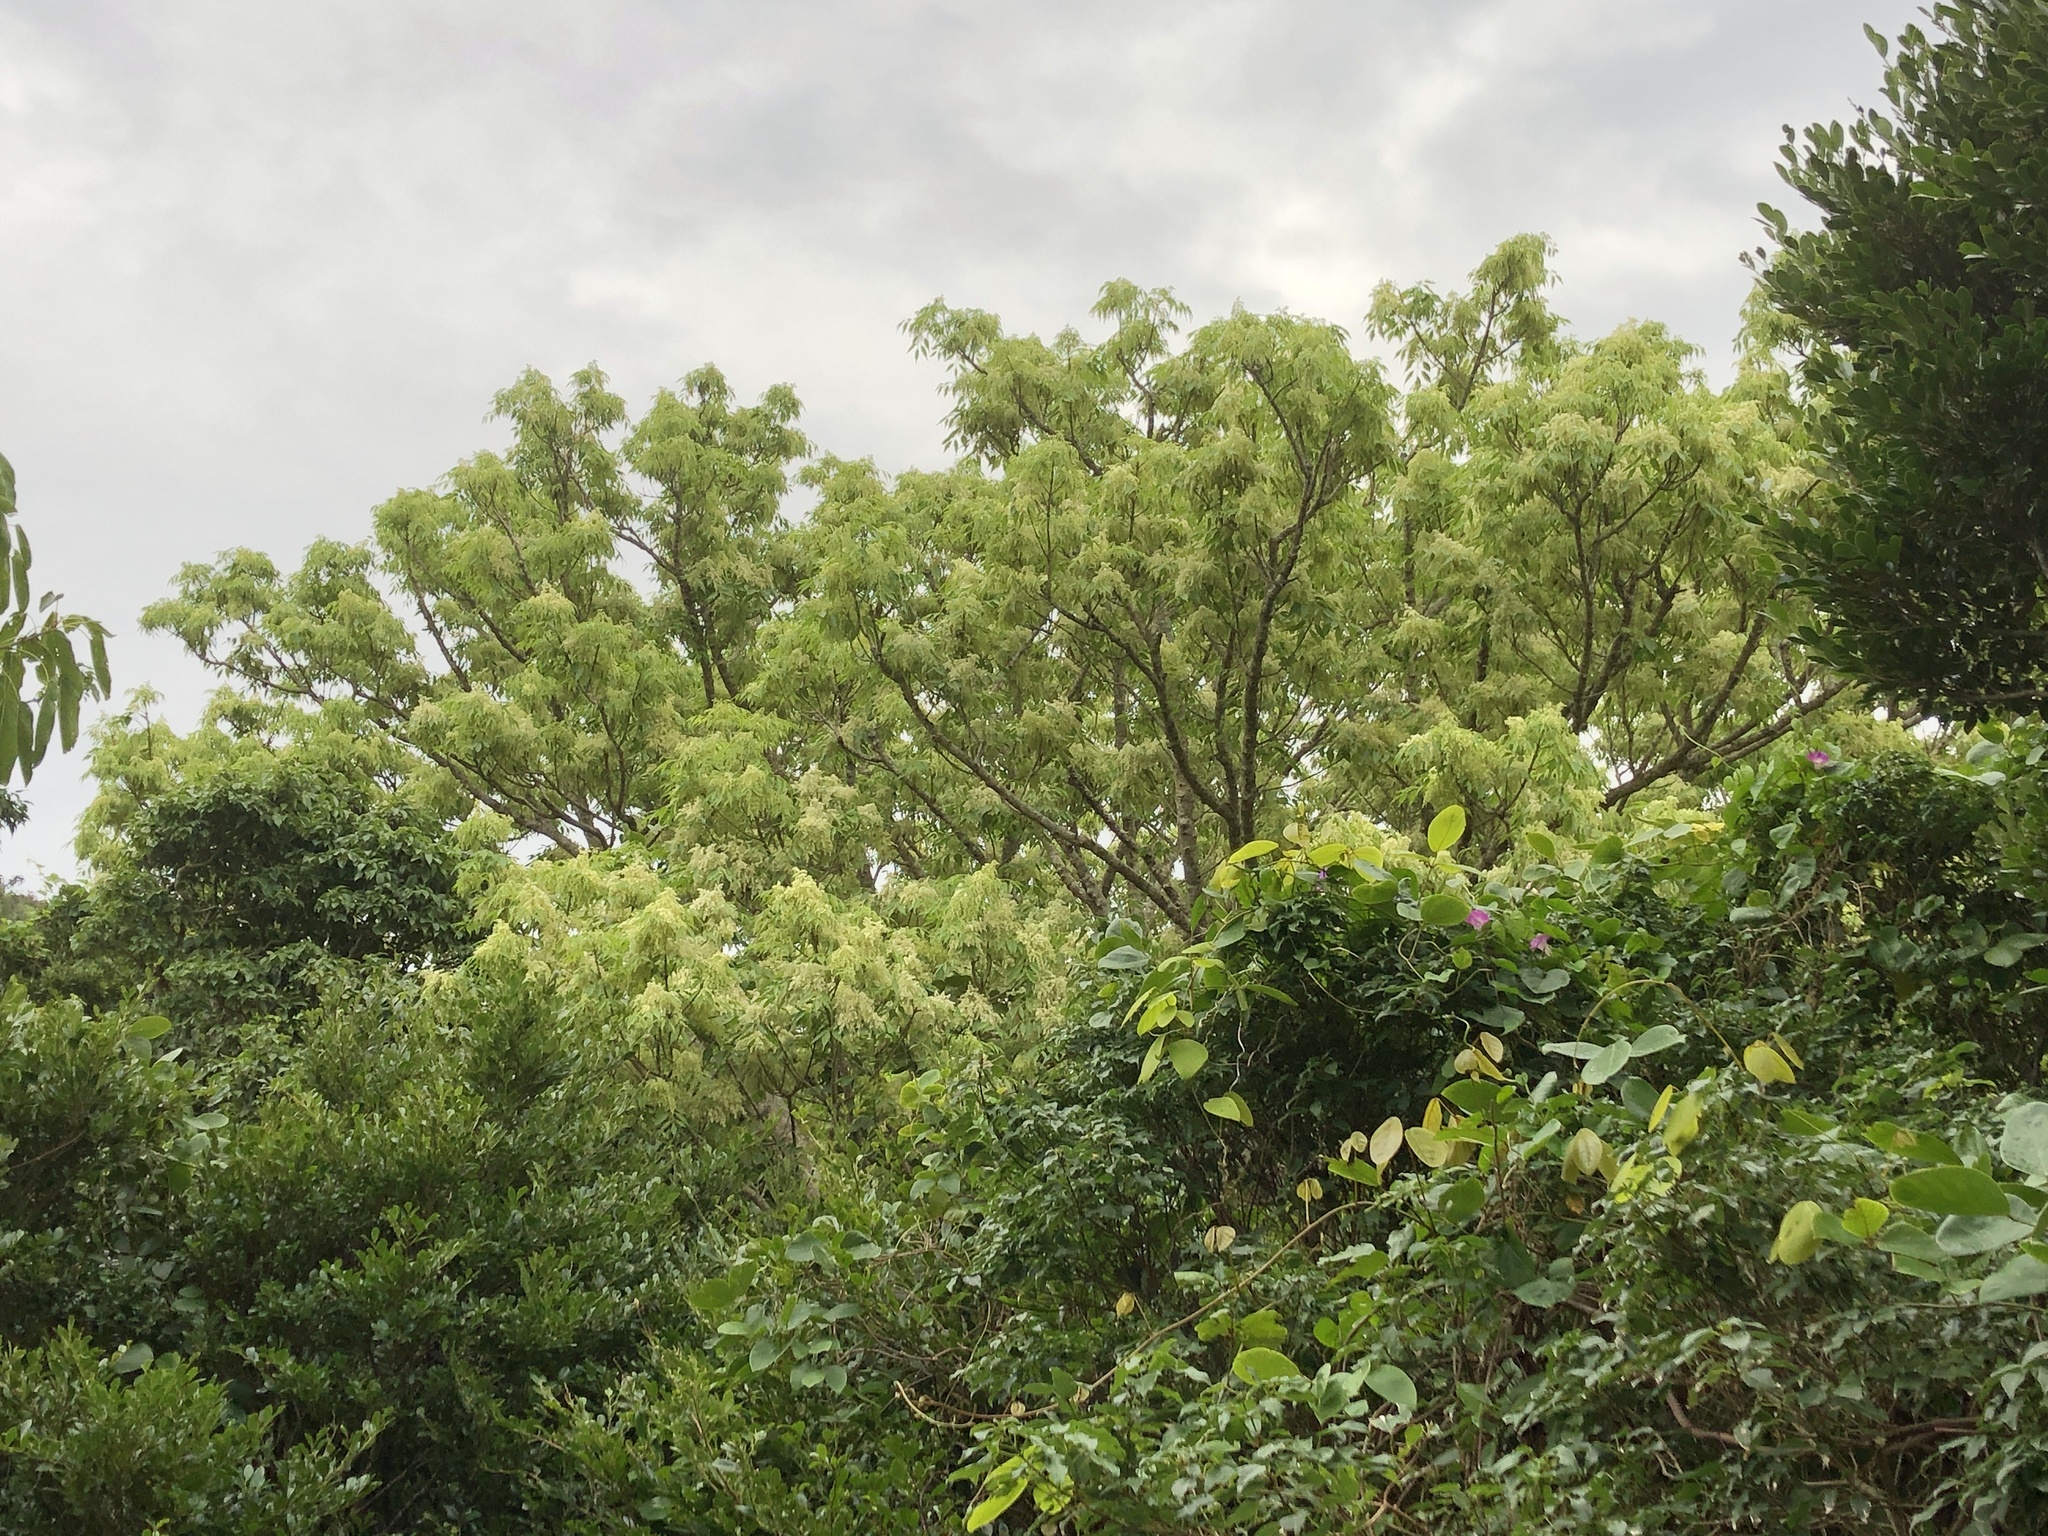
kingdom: Plantae
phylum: Tracheophyta
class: Magnoliopsida
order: Lamiales
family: Oleaceae
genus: Fraxinus
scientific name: Fraxinus insularis
